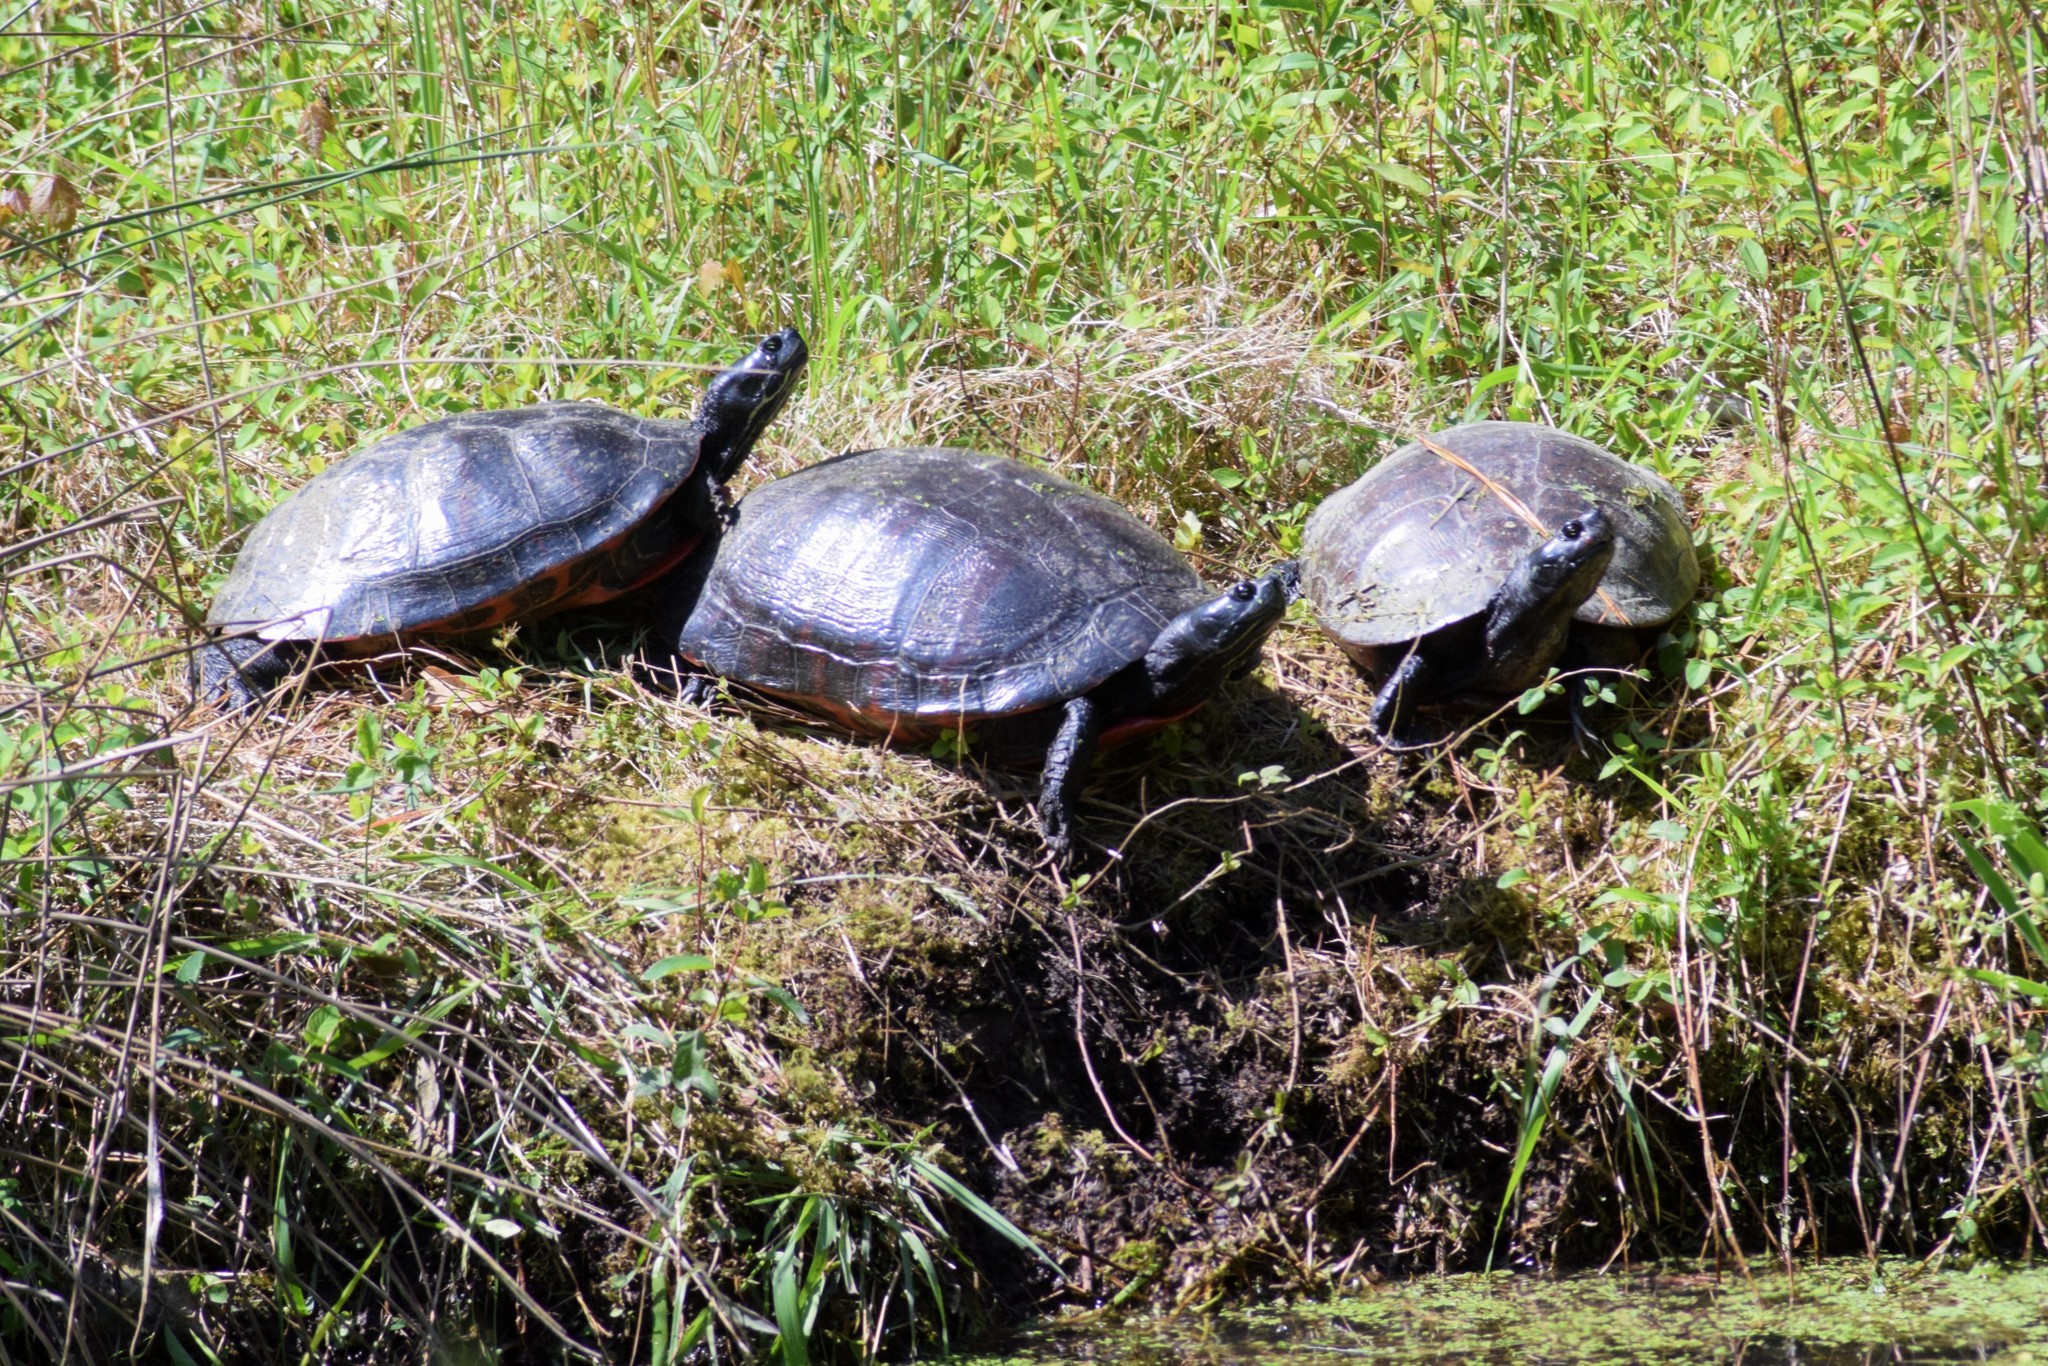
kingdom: Animalia
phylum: Chordata
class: Testudines
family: Emydidae
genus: Pseudemys
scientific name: Pseudemys rubriventris
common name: American red-bellied turtle
